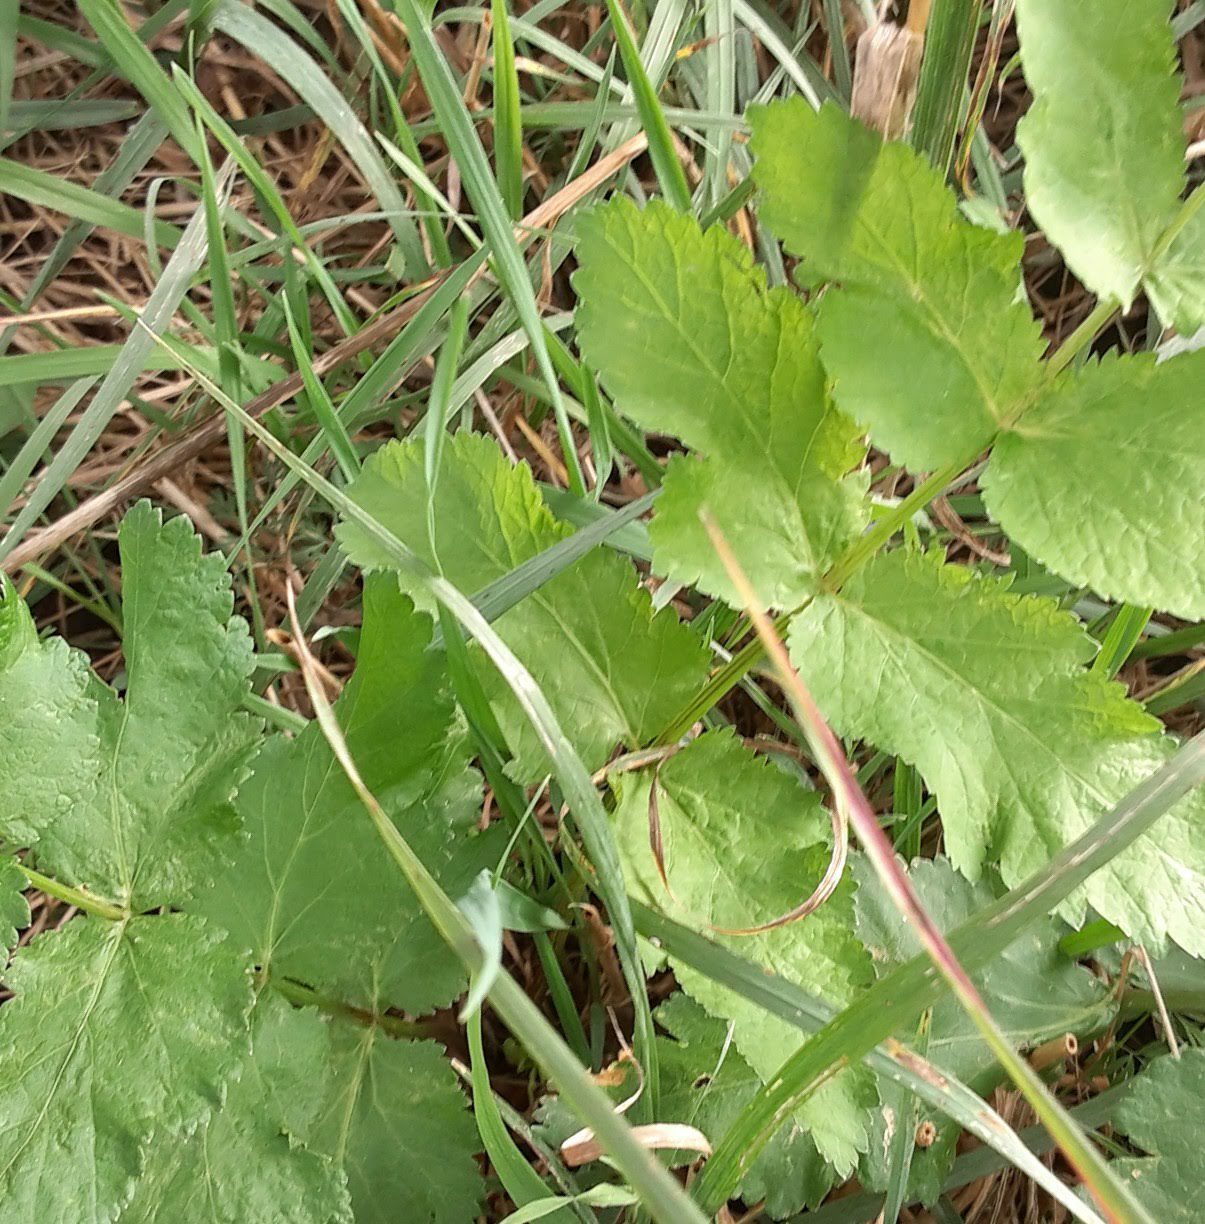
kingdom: Plantae
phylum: Tracheophyta
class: Magnoliopsida
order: Apiales
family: Apiaceae
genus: Pastinaca
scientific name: Pastinaca sativa
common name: Wild parsnip
